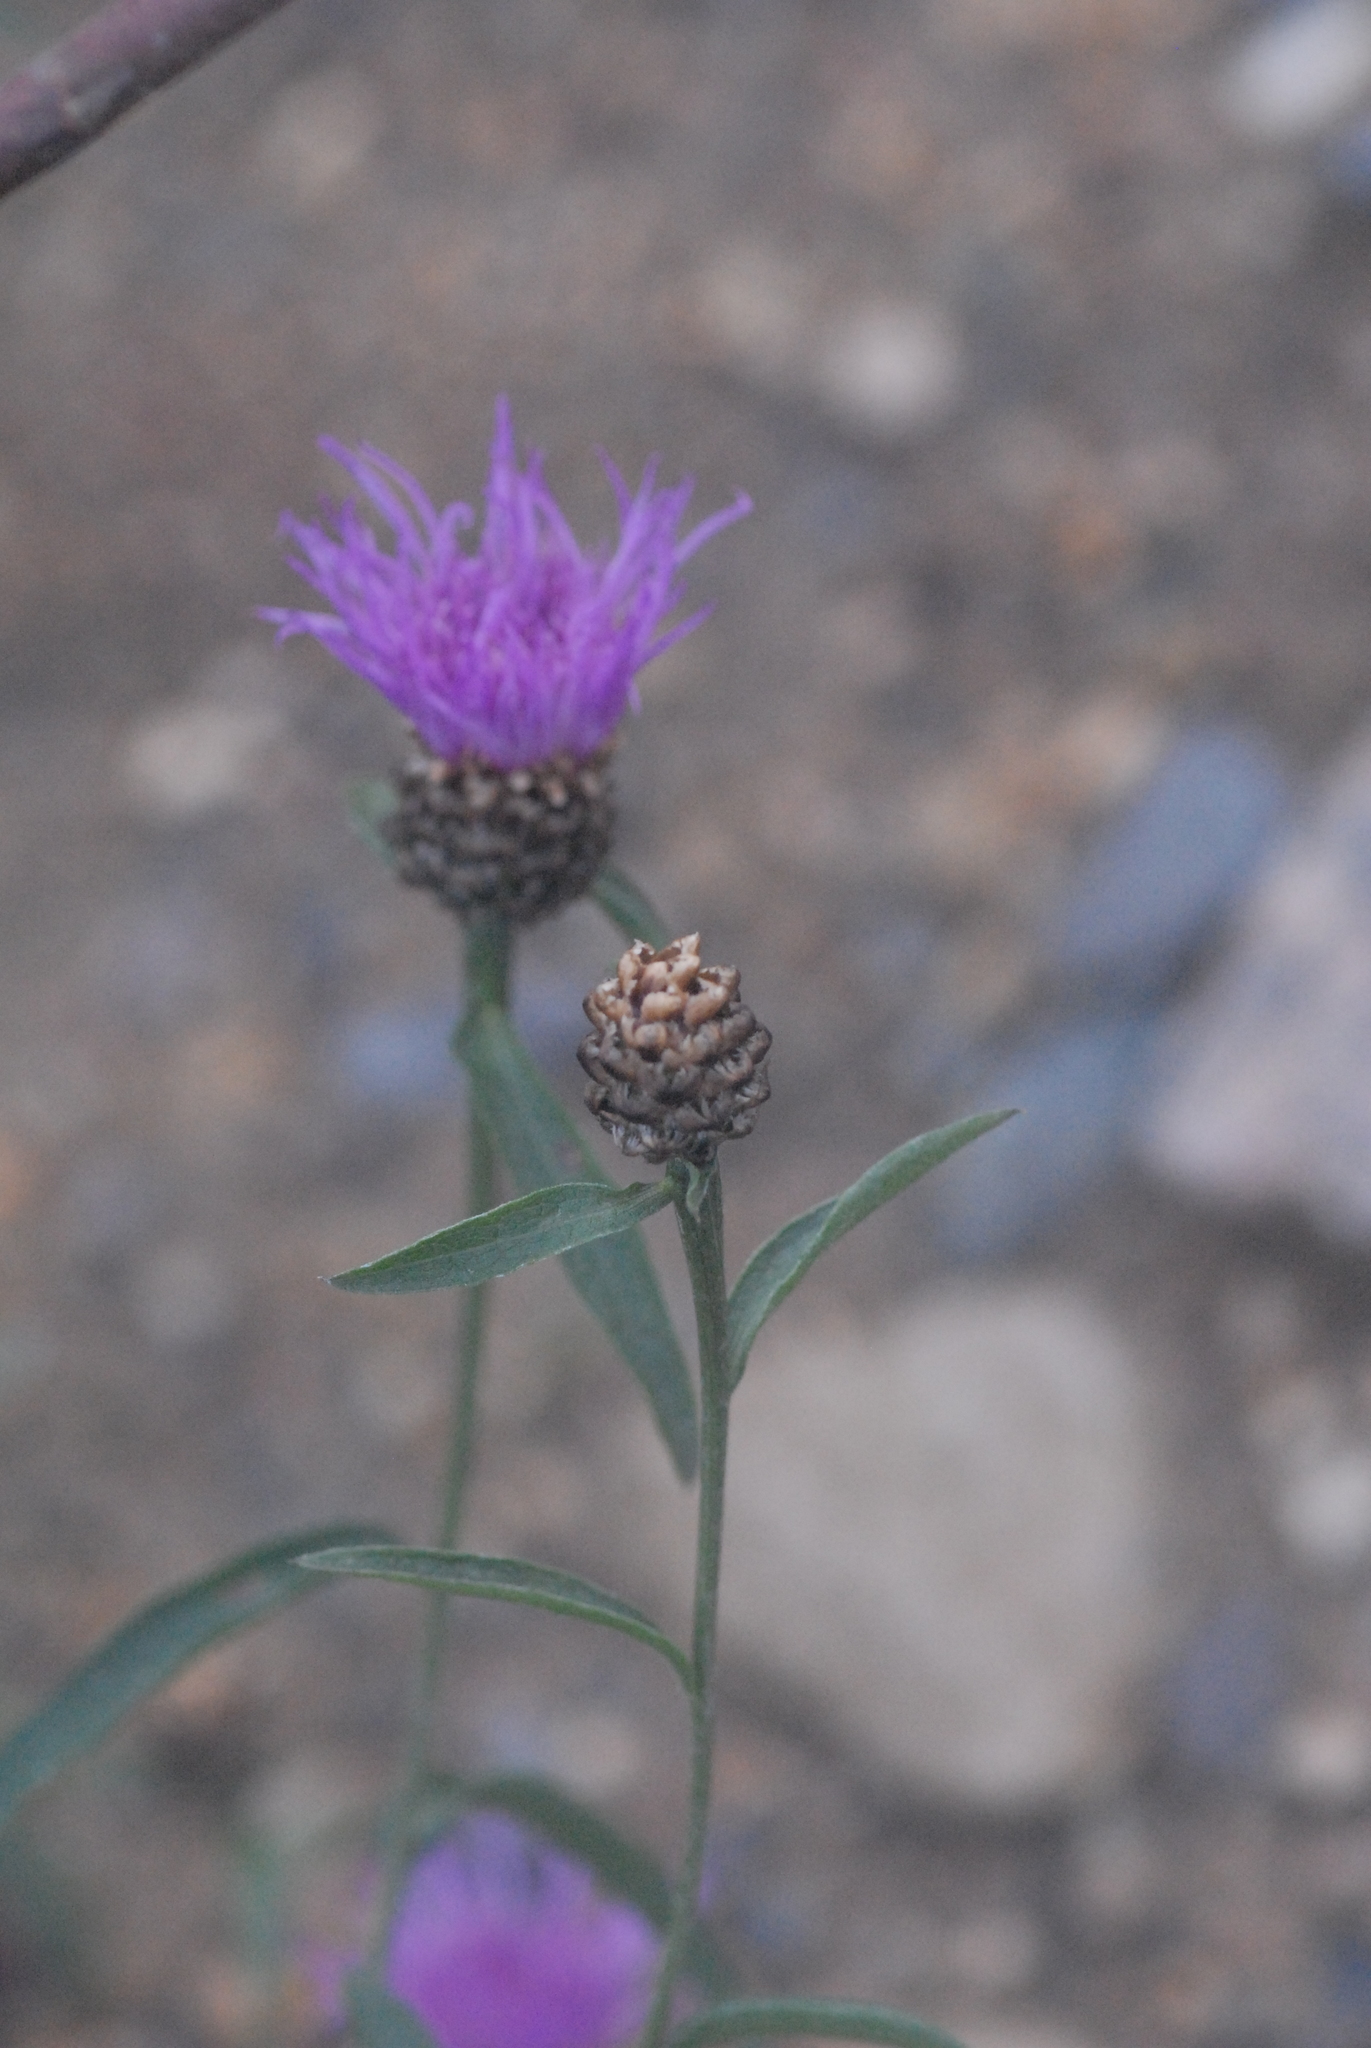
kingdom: Plantae
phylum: Tracheophyta
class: Magnoliopsida
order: Asterales
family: Asteraceae
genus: Centaurea
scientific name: Centaurea jacea
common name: Brown knapweed
